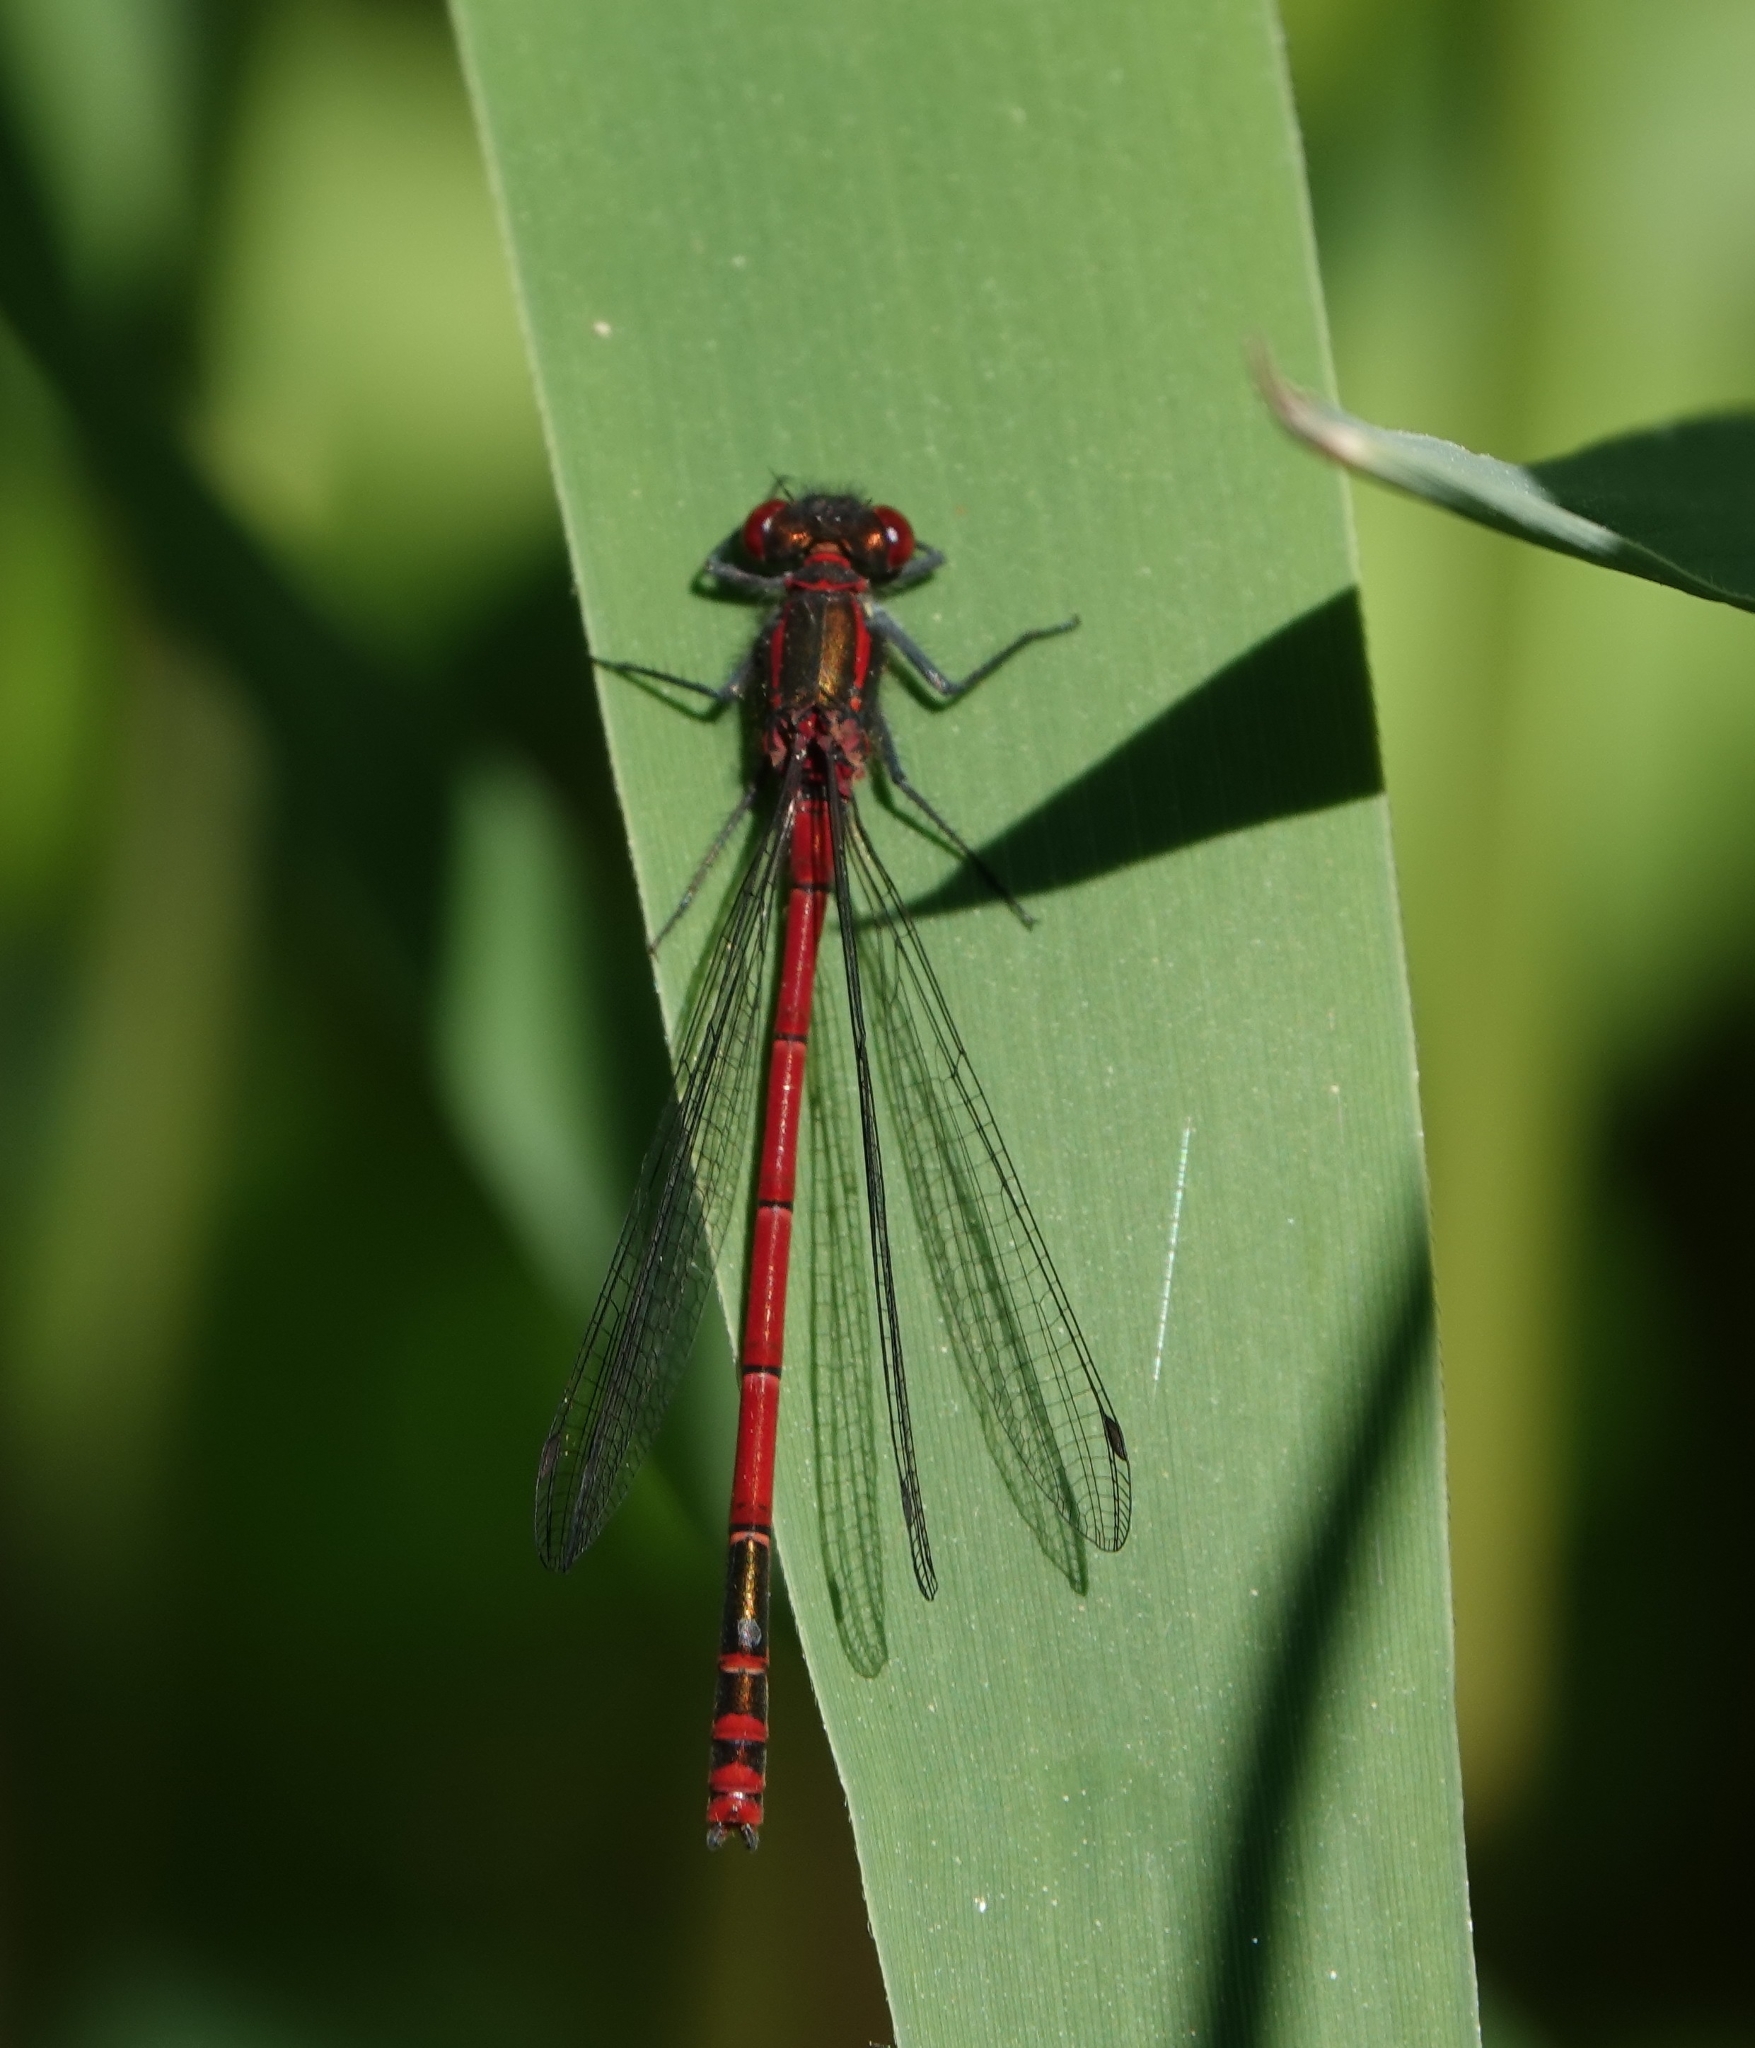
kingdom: Animalia
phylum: Arthropoda
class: Insecta
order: Odonata
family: Coenagrionidae
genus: Pyrrhosoma
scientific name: Pyrrhosoma nymphula
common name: Large red damsel
